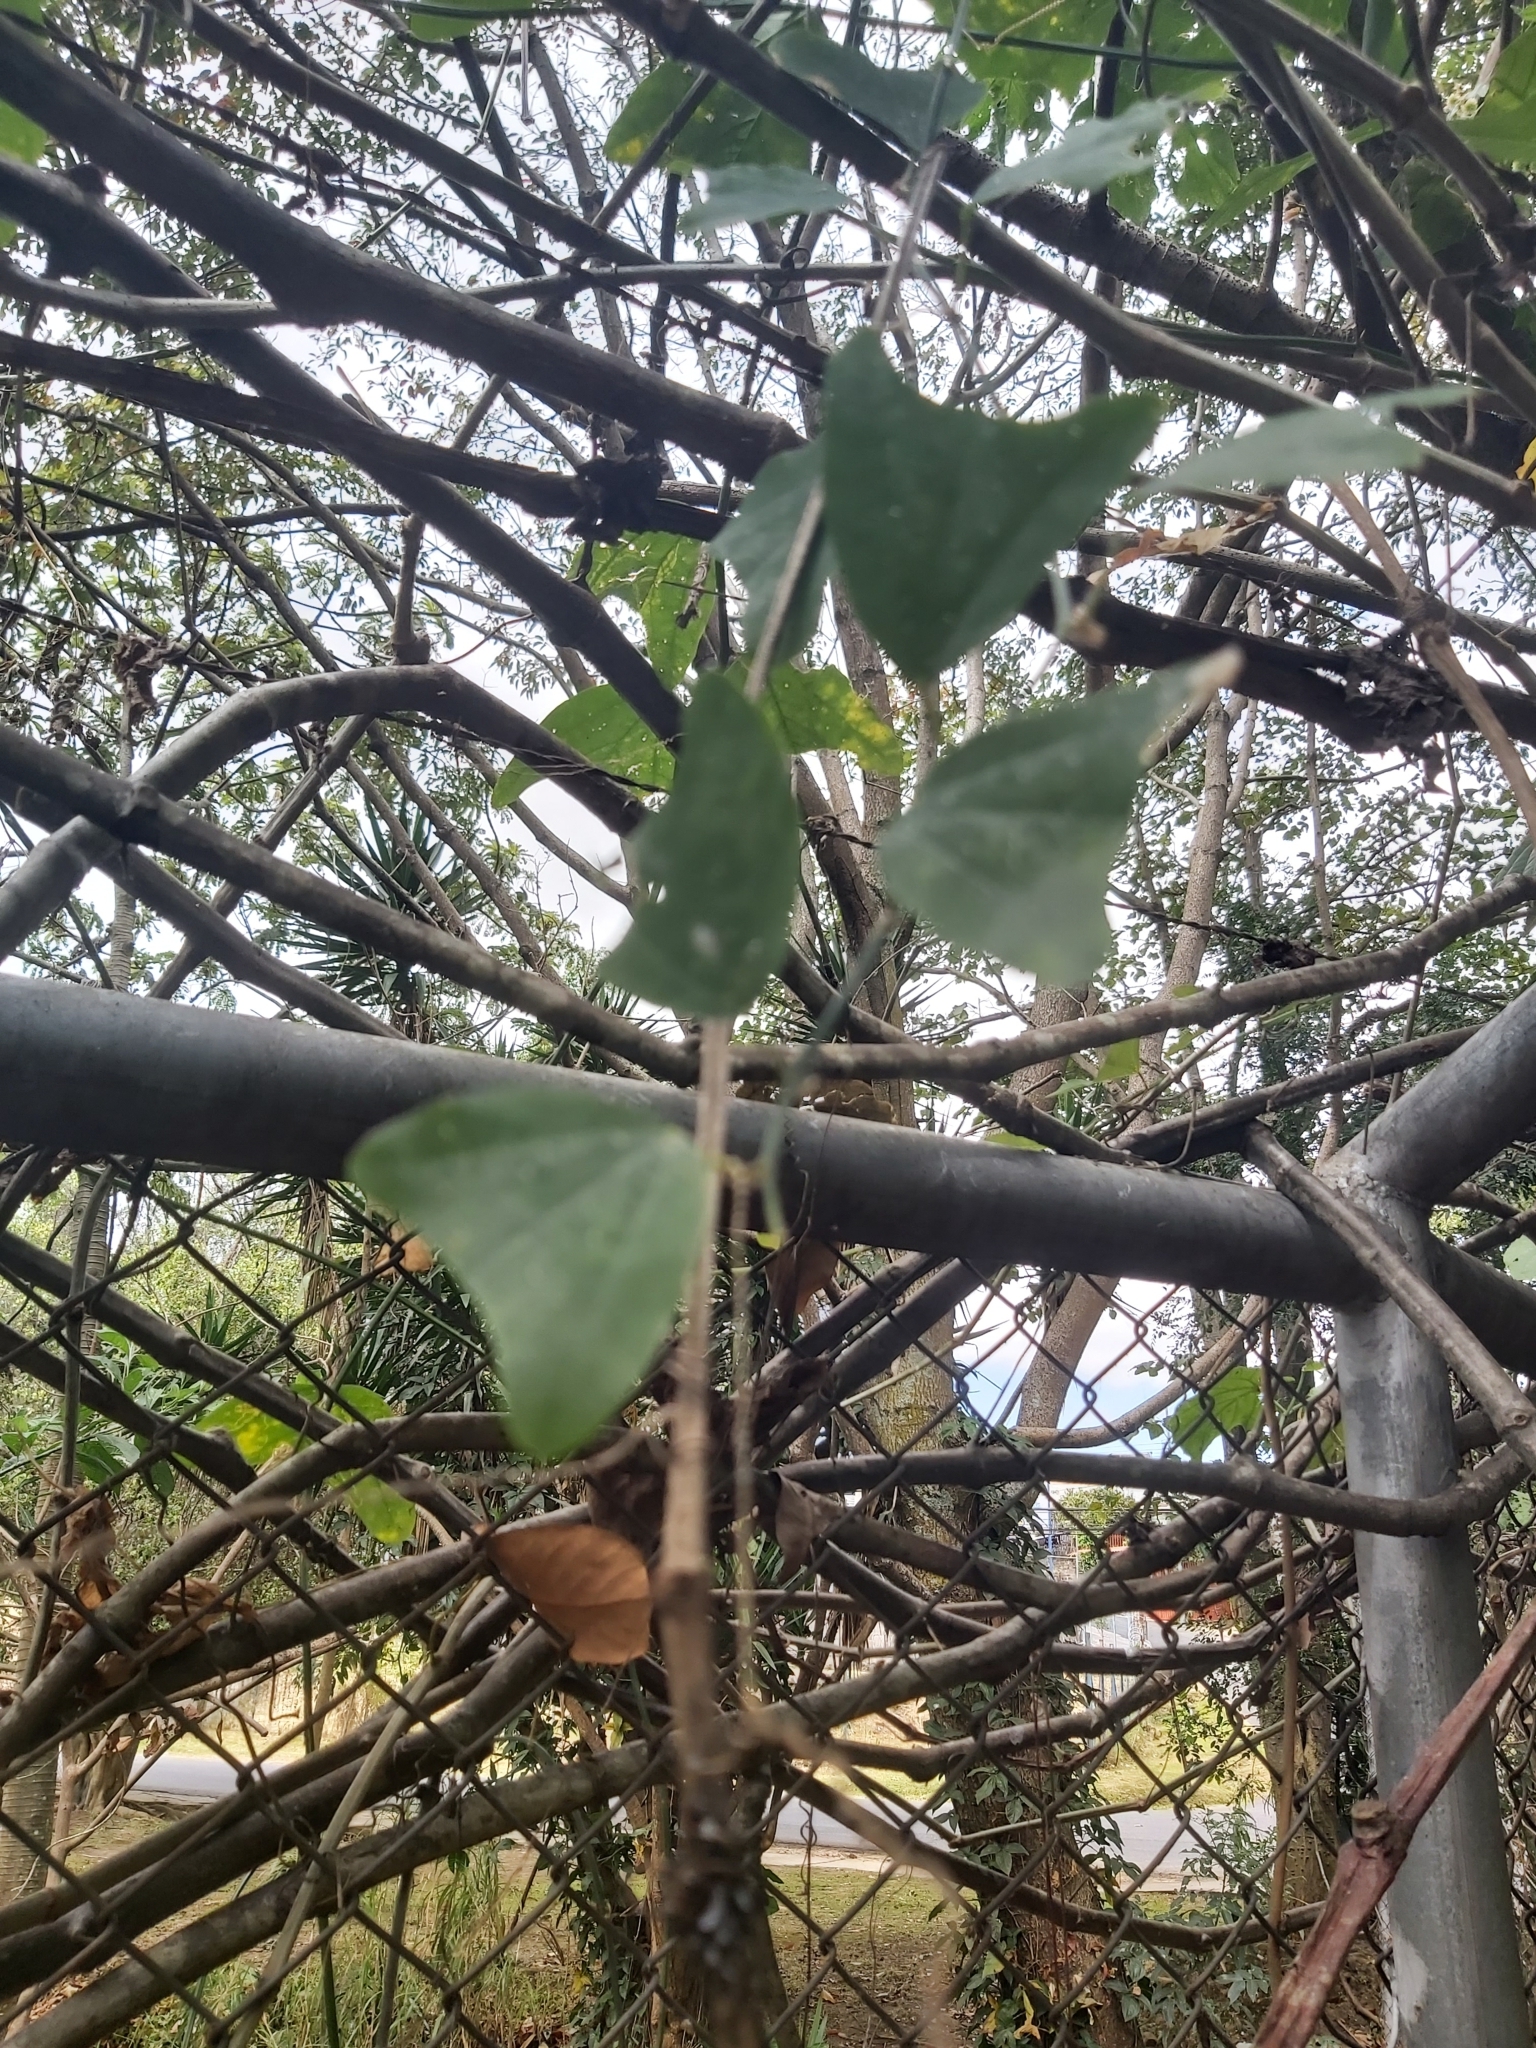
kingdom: Plantae
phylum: Tracheophyta
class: Magnoliopsida
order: Malpighiales
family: Passifloraceae
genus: Passiflora
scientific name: Passiflora biflora
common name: Twoflower passionflower
